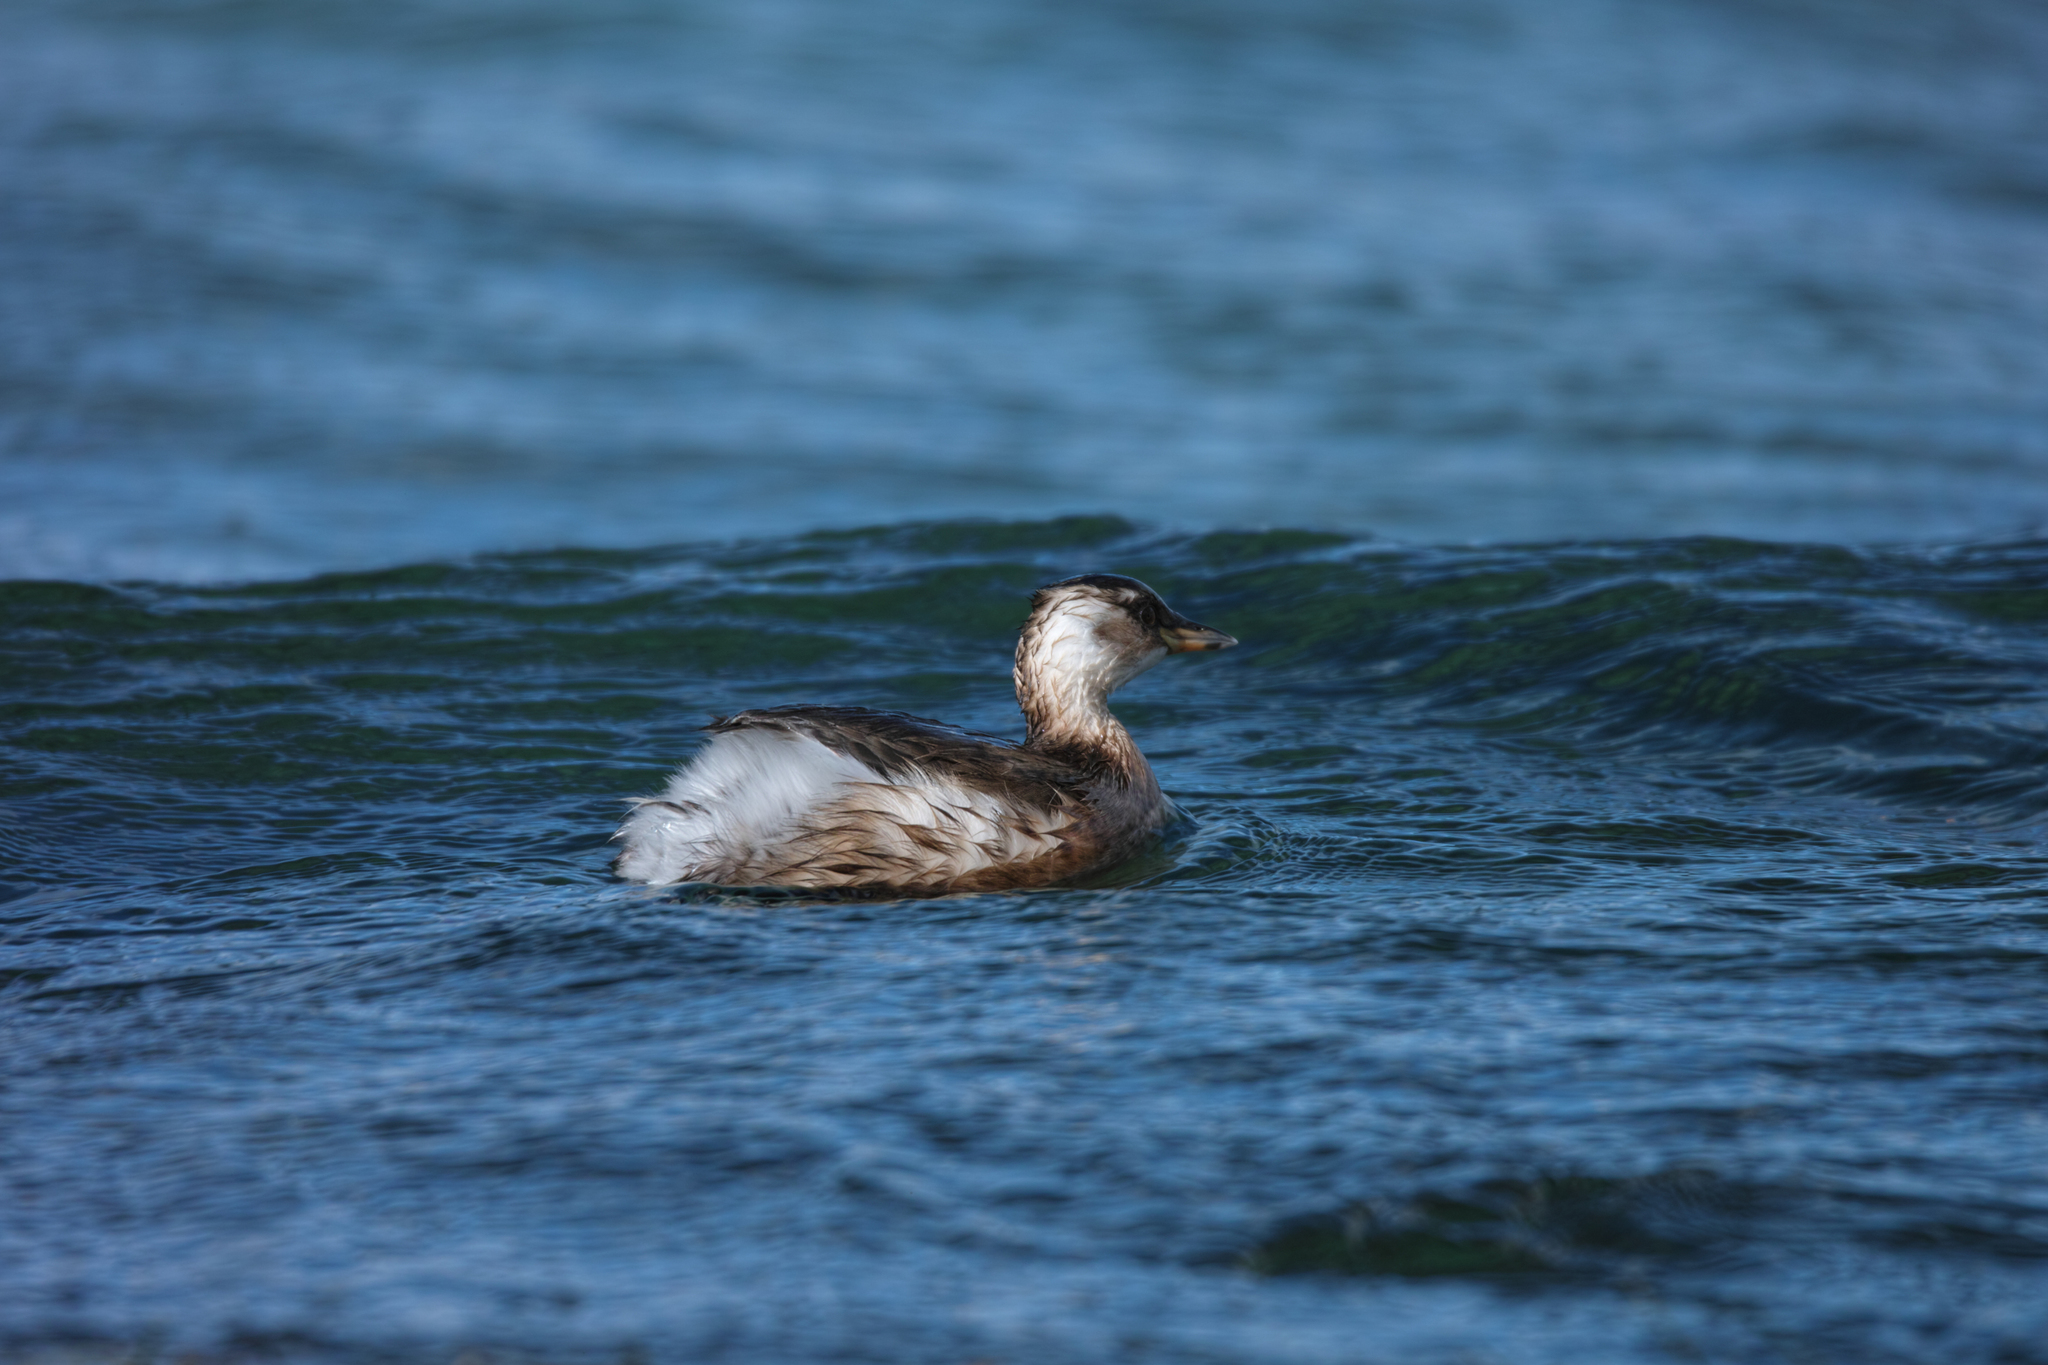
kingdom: Animalia
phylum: Chordata
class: Aves
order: Podicipediformes
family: Podicipedidae
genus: Tachybaptus
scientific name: Tachybaptus ruficollis
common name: Little grebe
